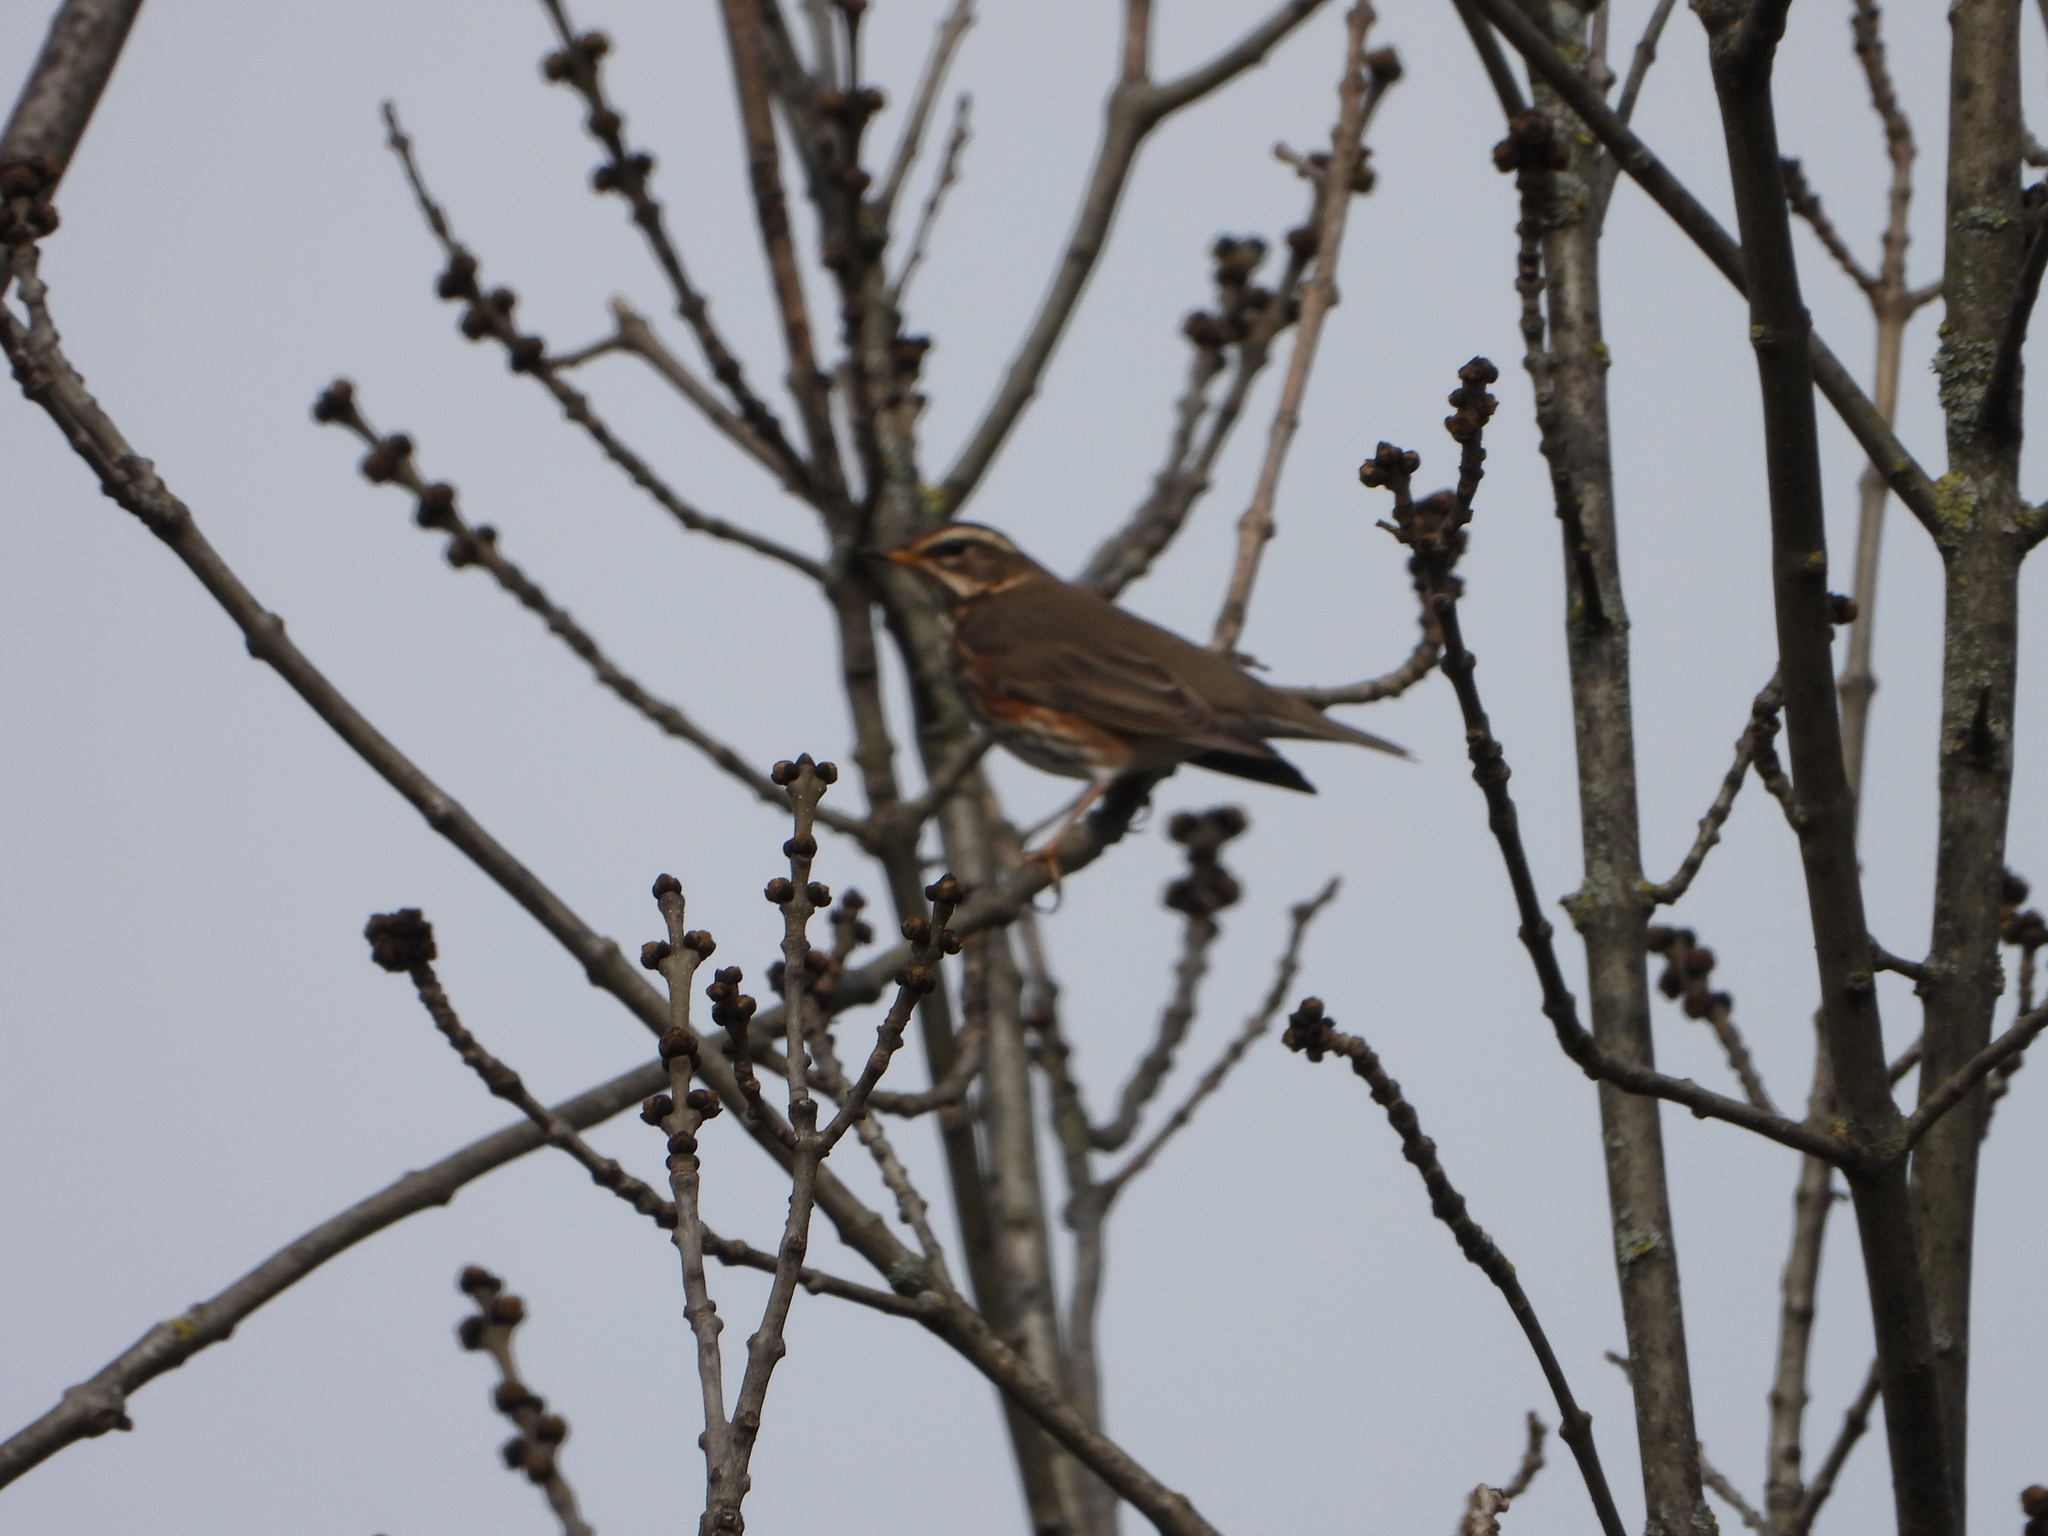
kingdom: Animalia
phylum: Chordata
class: Aves
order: Passeriformes
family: Turdidae
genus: Turdus
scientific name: Turdus iliacus
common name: Redwing
